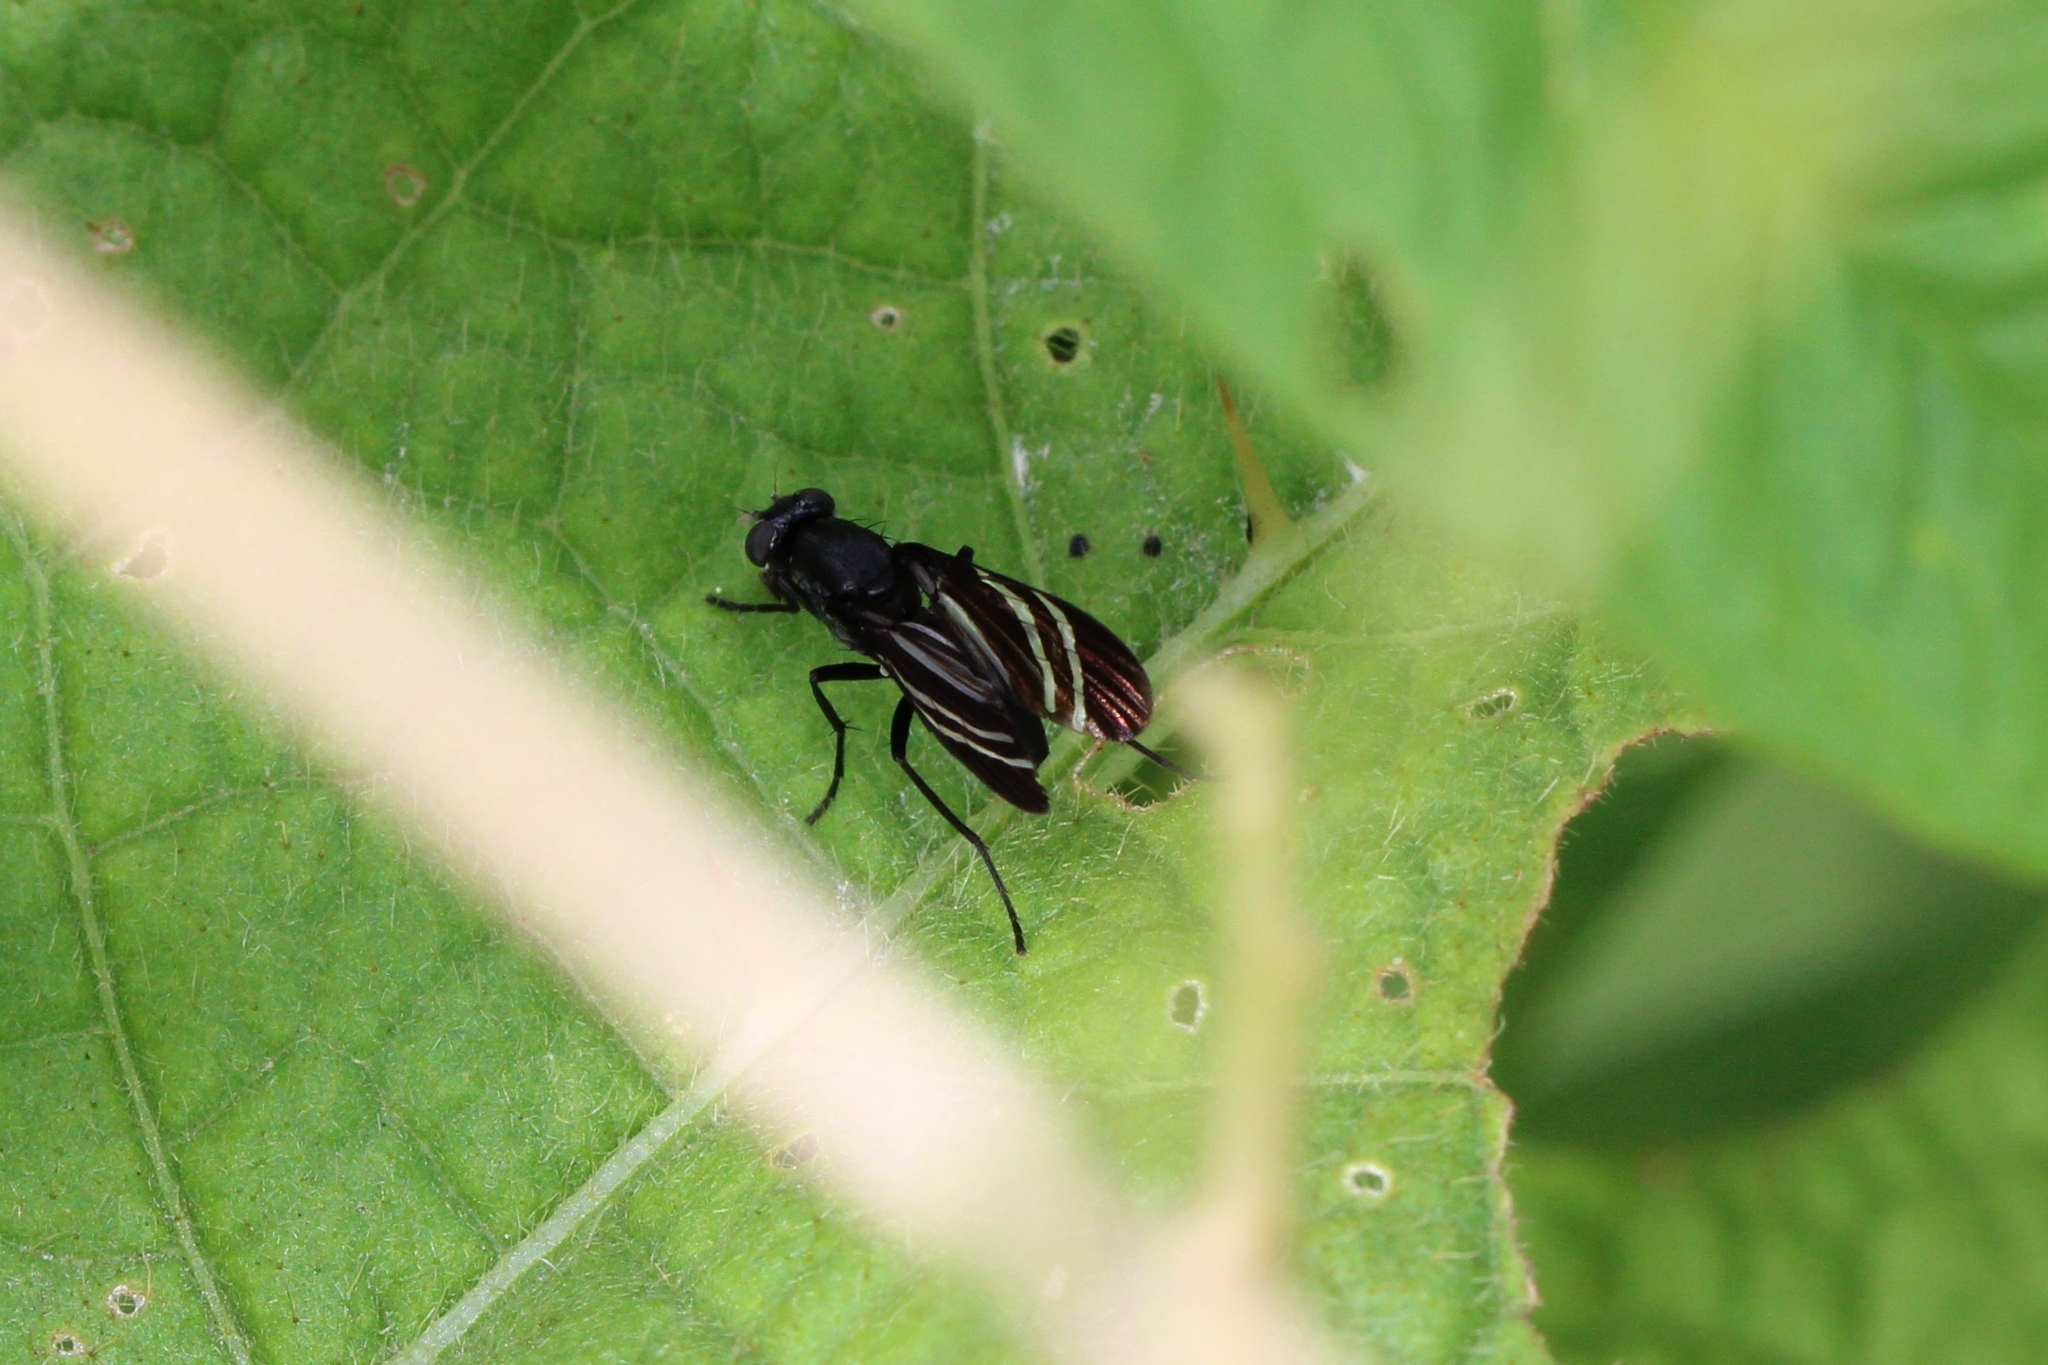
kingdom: Animalia
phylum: Arthropoda
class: Insecta
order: Diptera
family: Ulidiidae
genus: Tritoxa
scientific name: Tritoxa flexa
